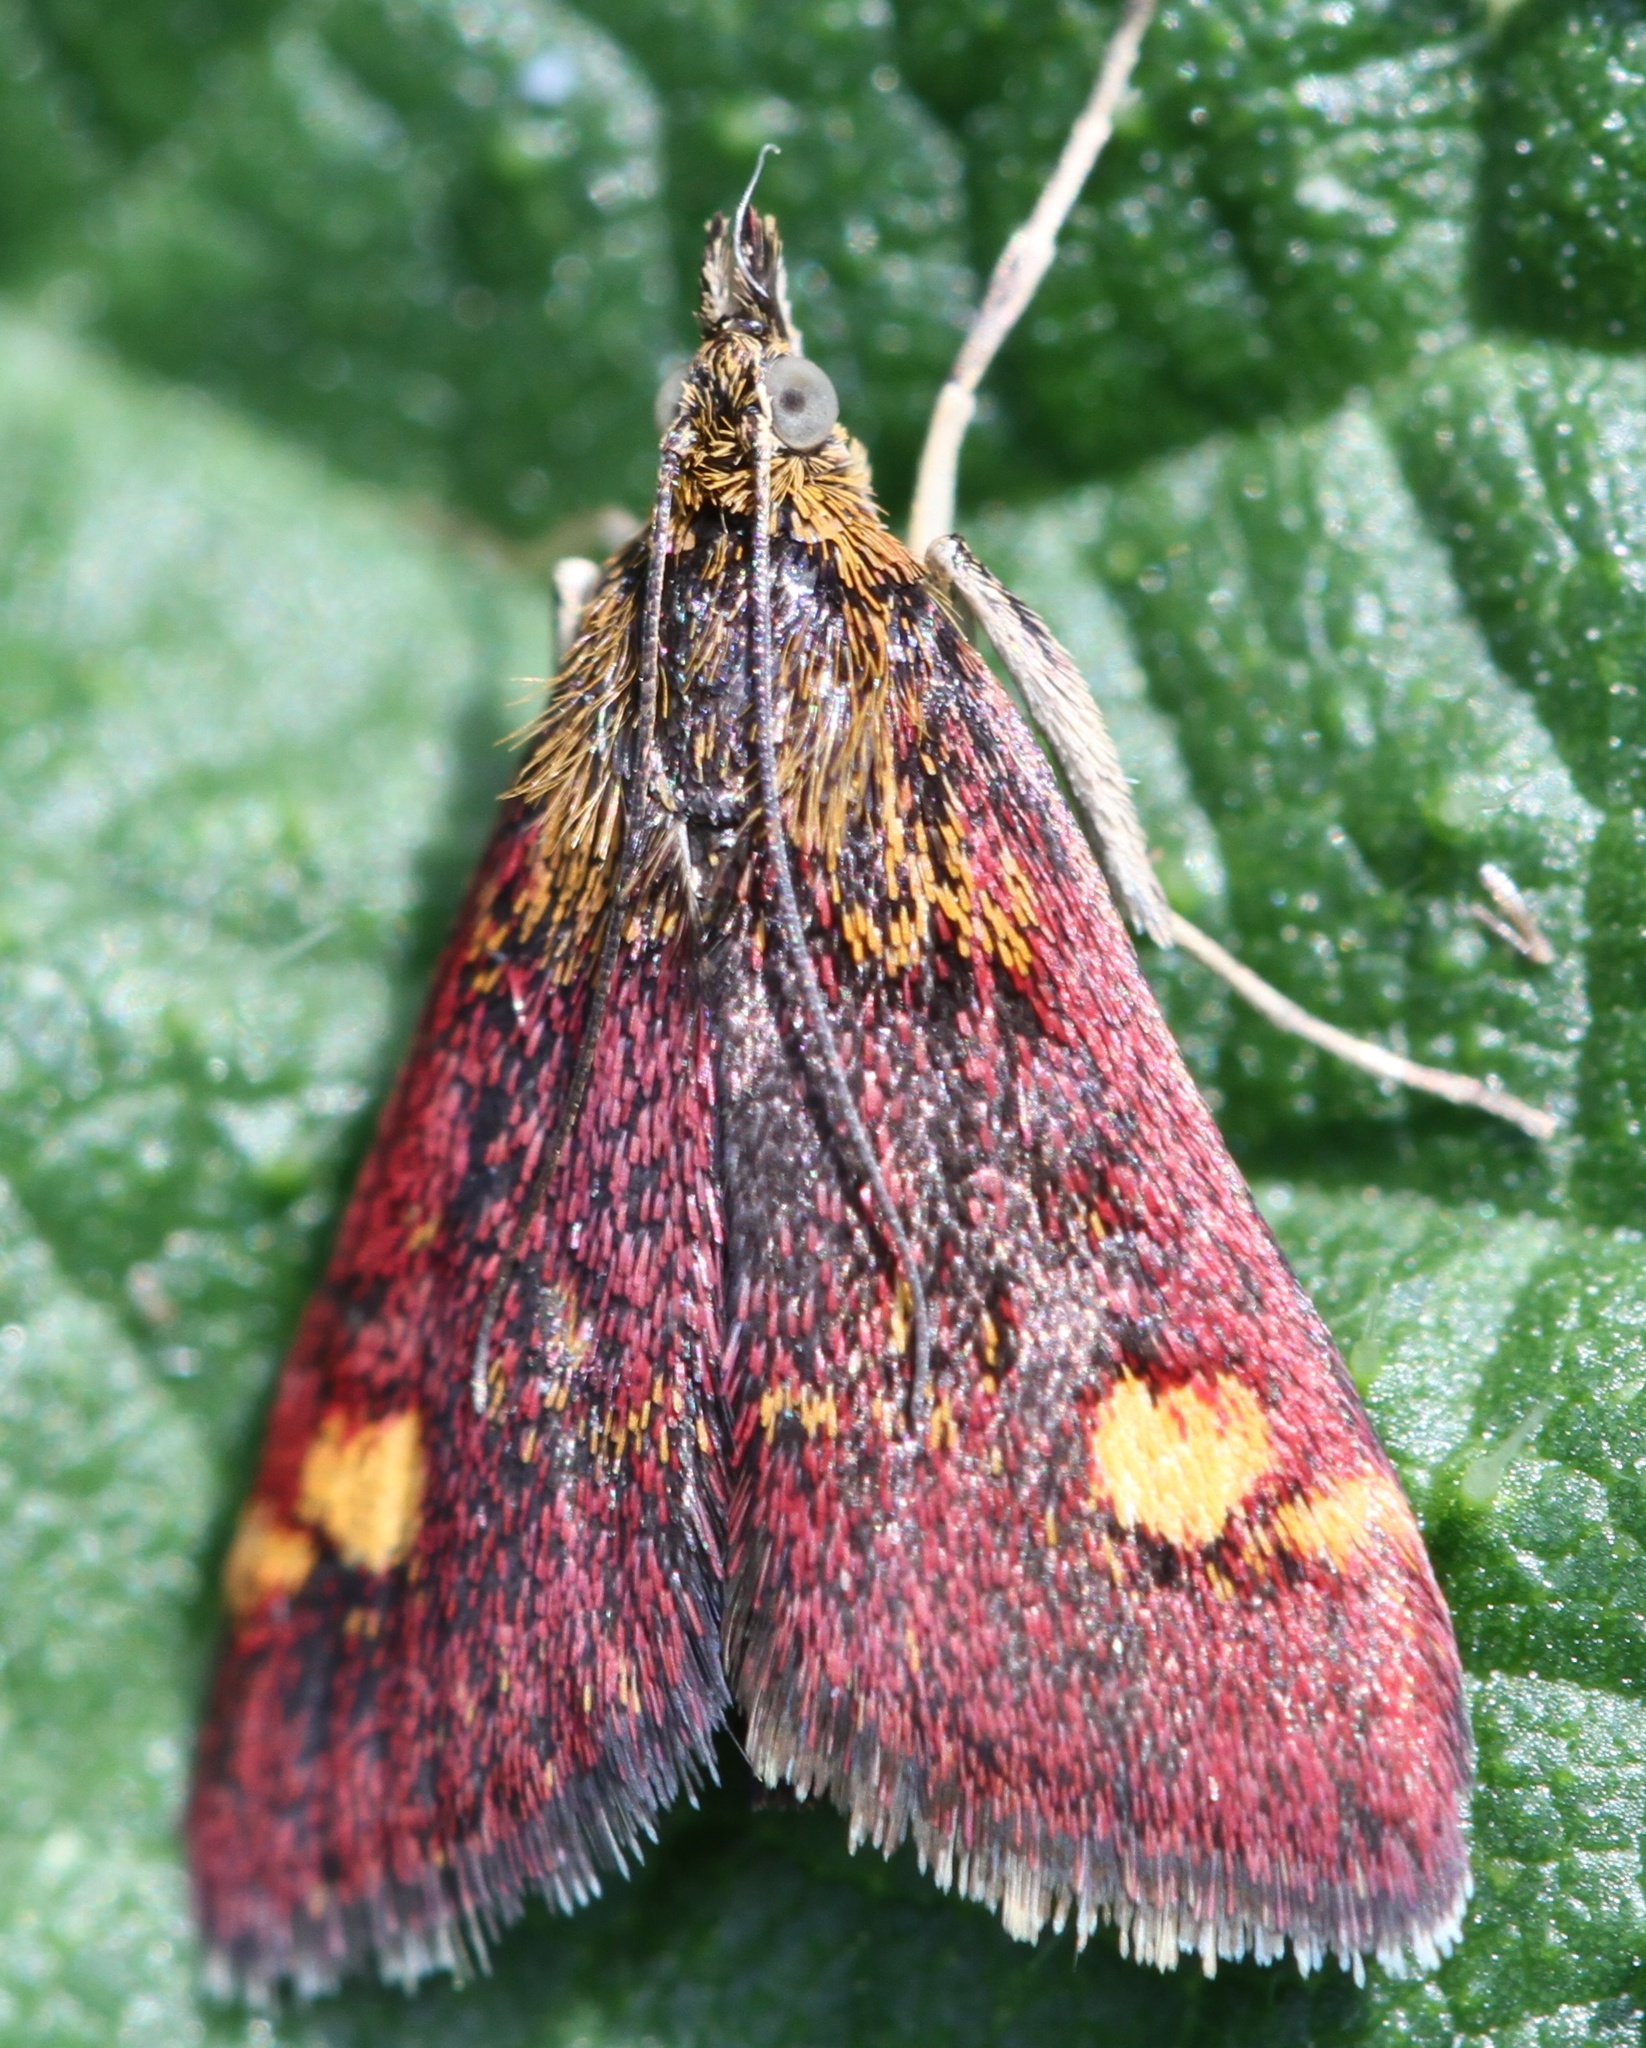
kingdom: Animalia
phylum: Arthropoda
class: Insecta
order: Lepidoptera
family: Crambidae
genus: Pyrausta
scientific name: Pyrausta aurata
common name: Small purple & gold
